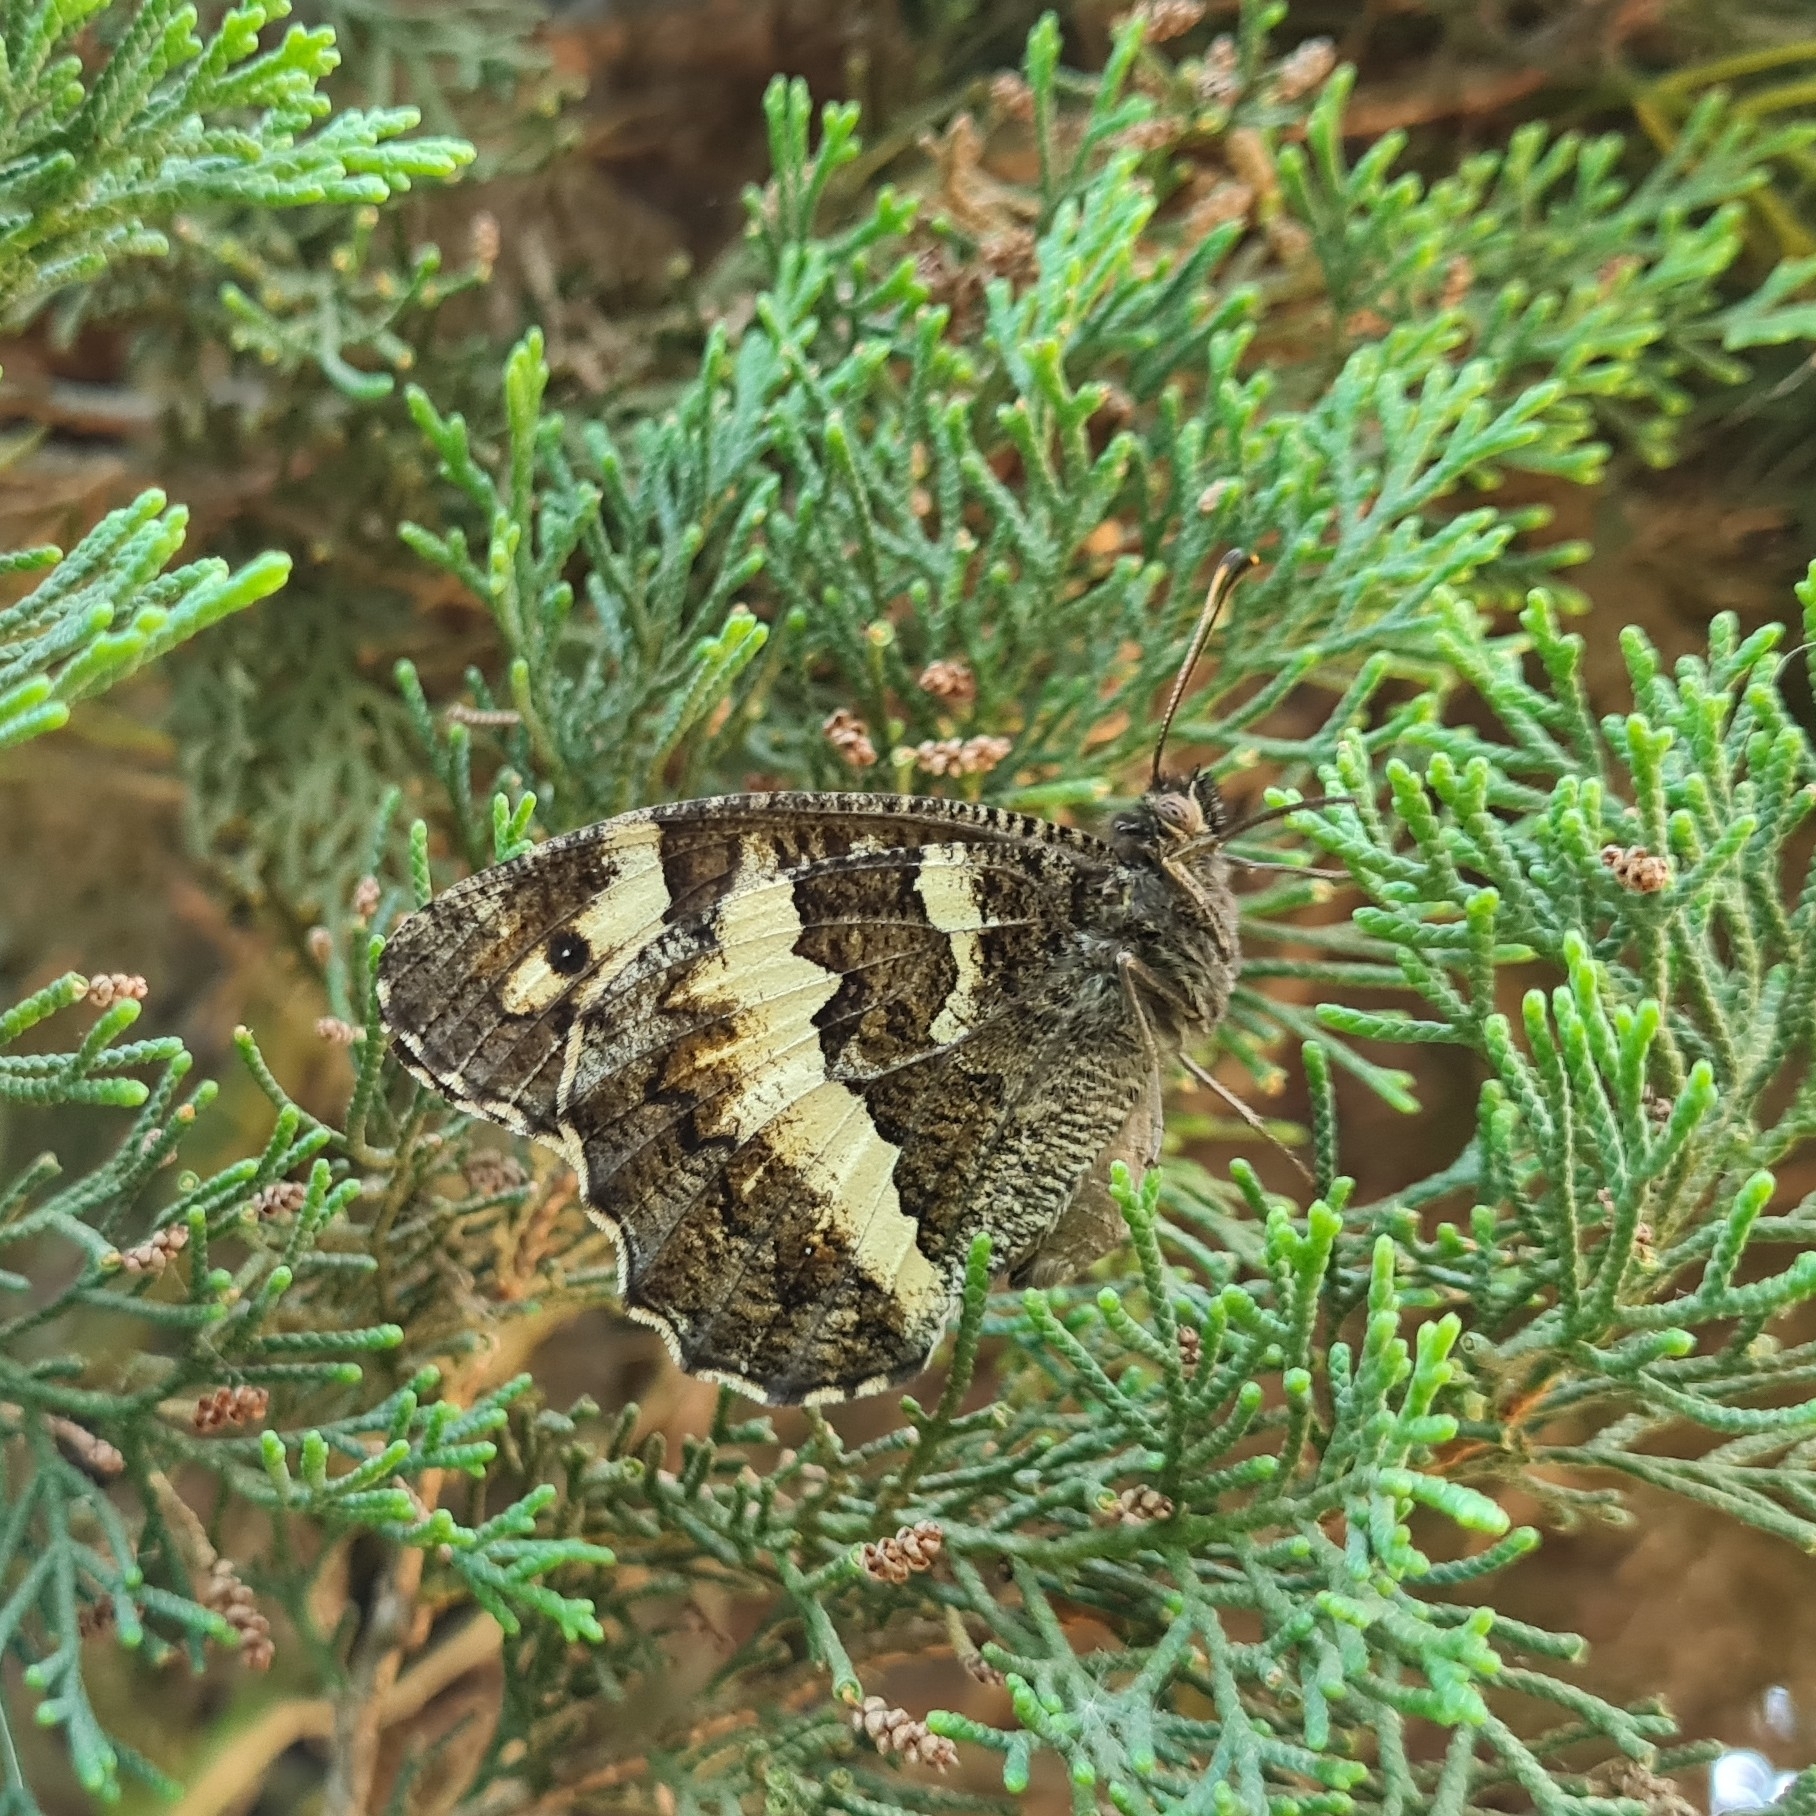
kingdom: Animalia
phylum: Arthropoda
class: Insecta
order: Lepidoptera
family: Lycaenidae
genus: Loweia
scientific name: Loweia tityrus
